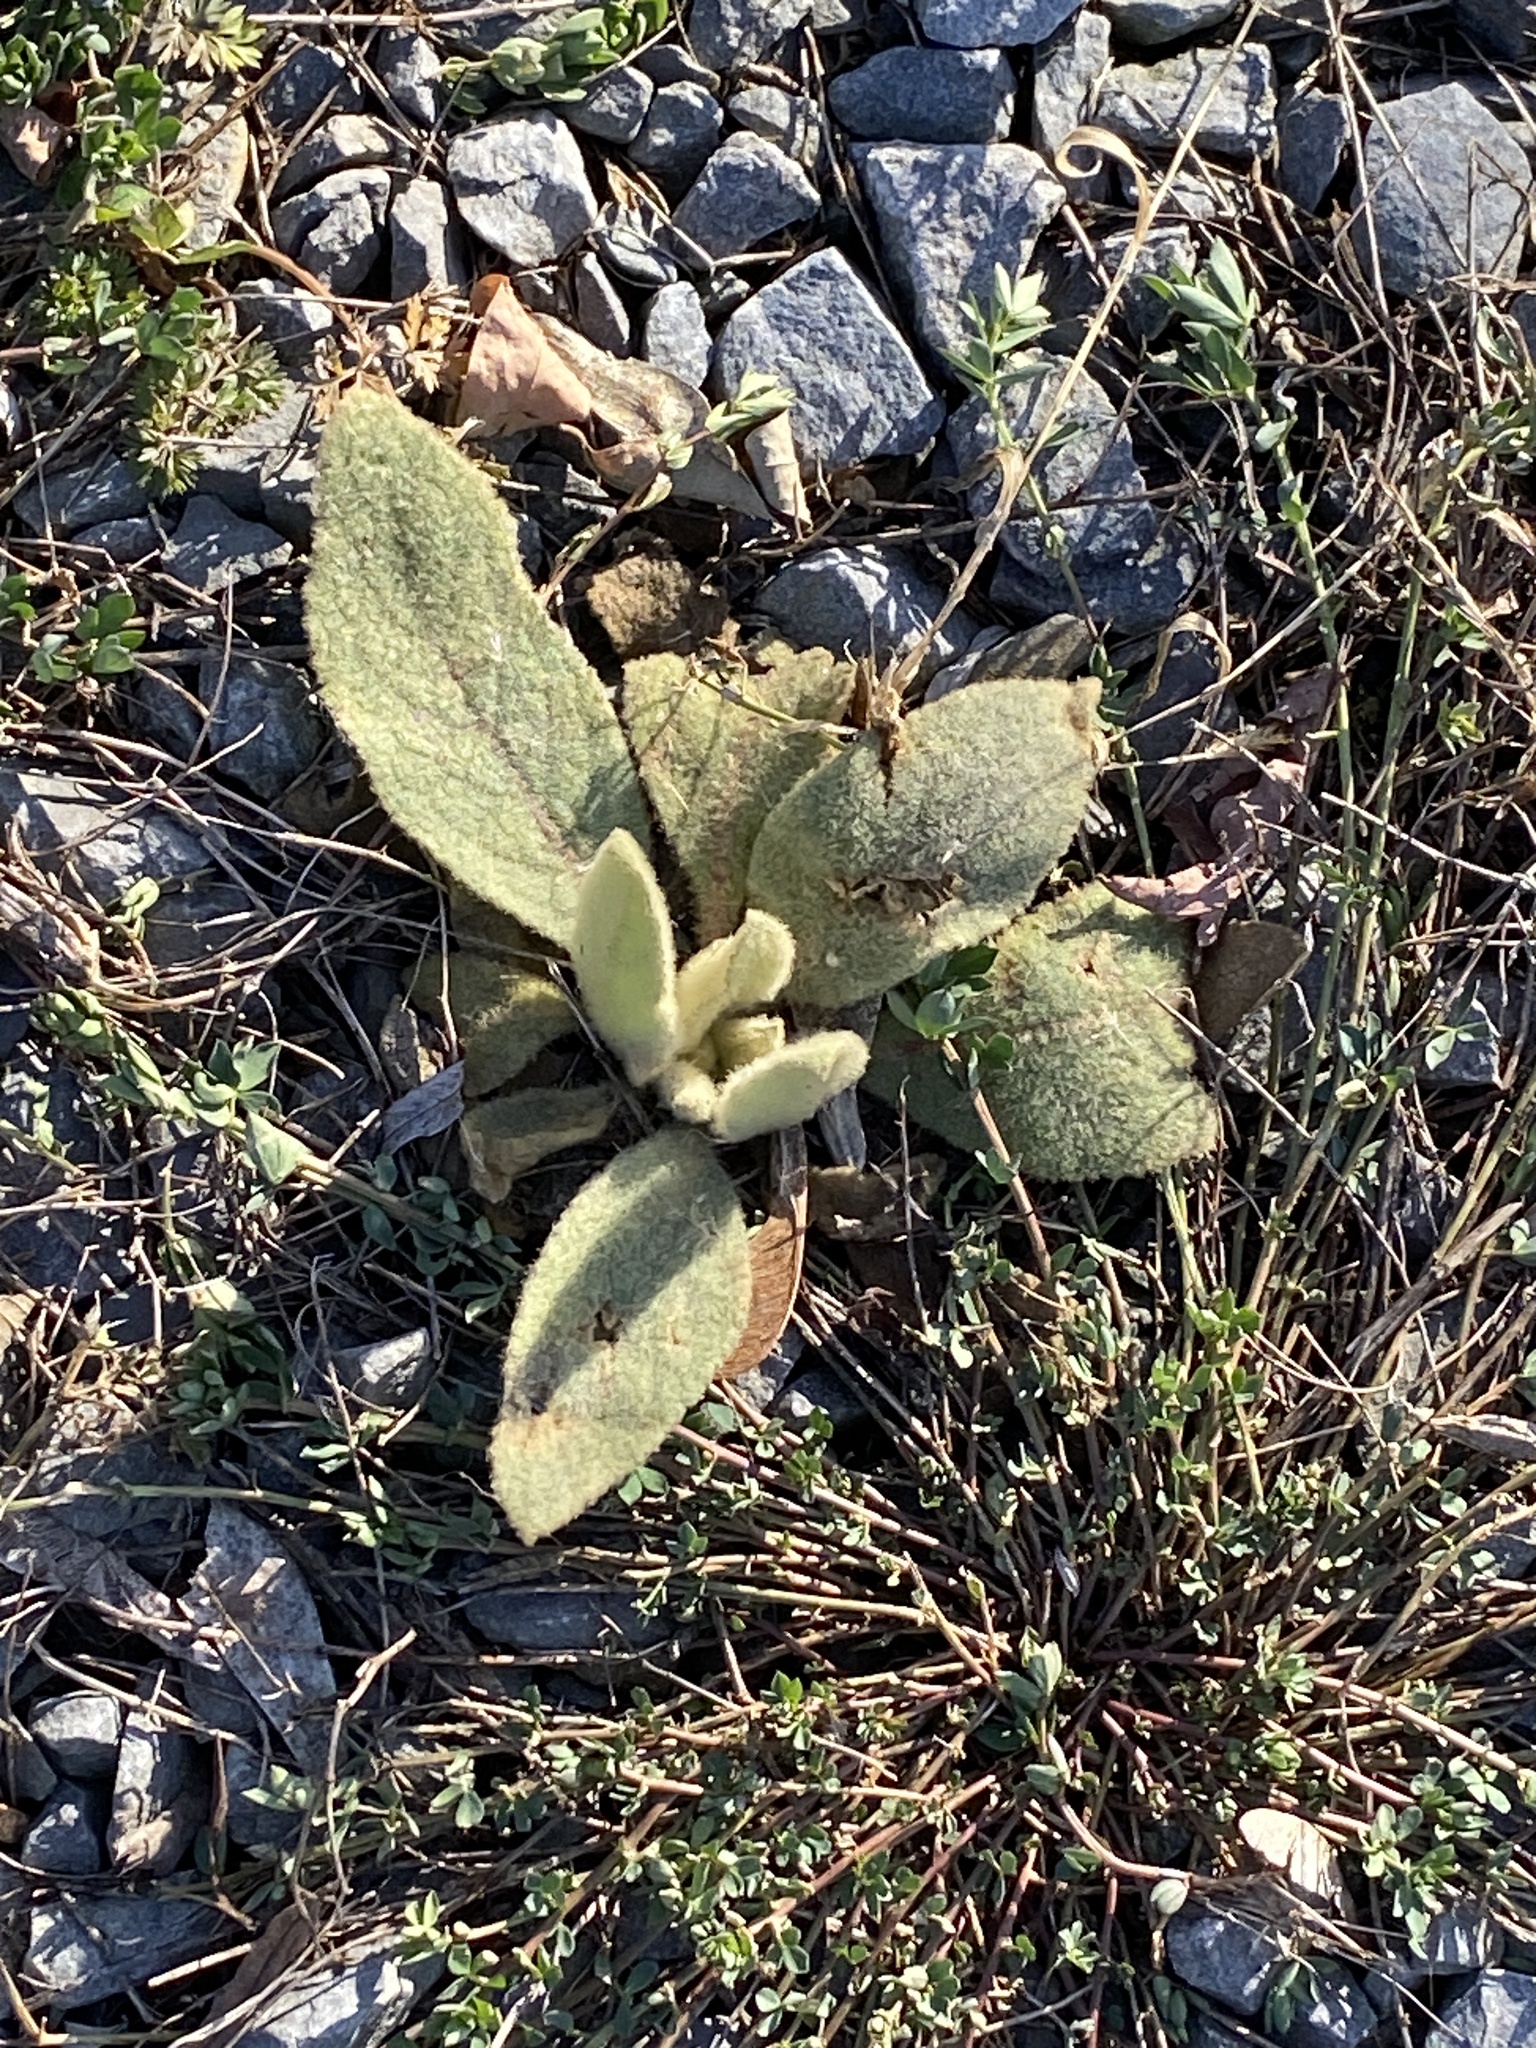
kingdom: Plantae
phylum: Tracheophyta
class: Magnoliopsida
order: Lamiales
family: Scrophulariaceae
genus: Verbascum
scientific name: Verbascum thapsus
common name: Common mullein
